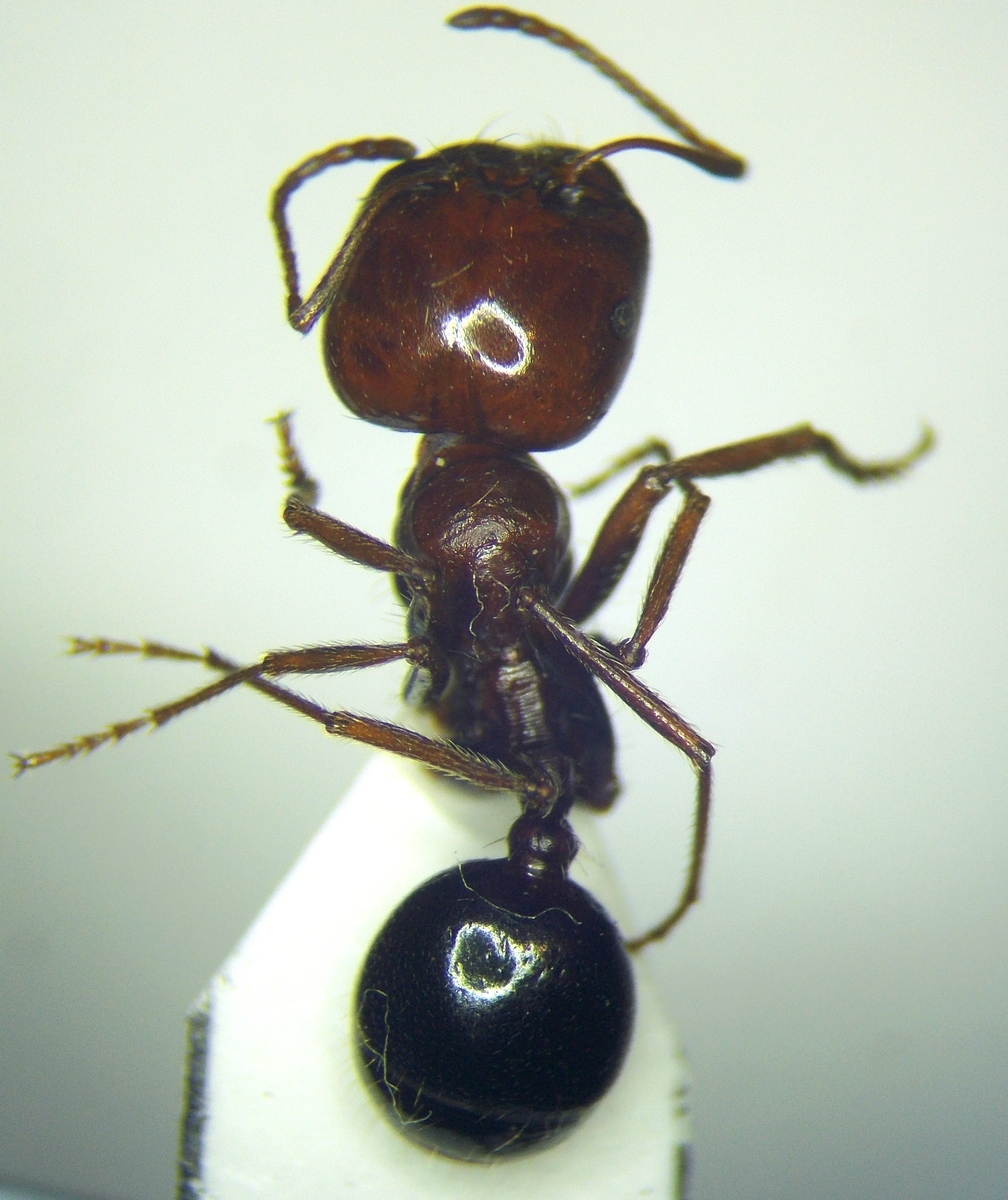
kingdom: Animalia
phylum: Arthropoda
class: Insecta
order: Hymenoptera
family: Formicidae
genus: Messor
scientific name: Messor semirufus
